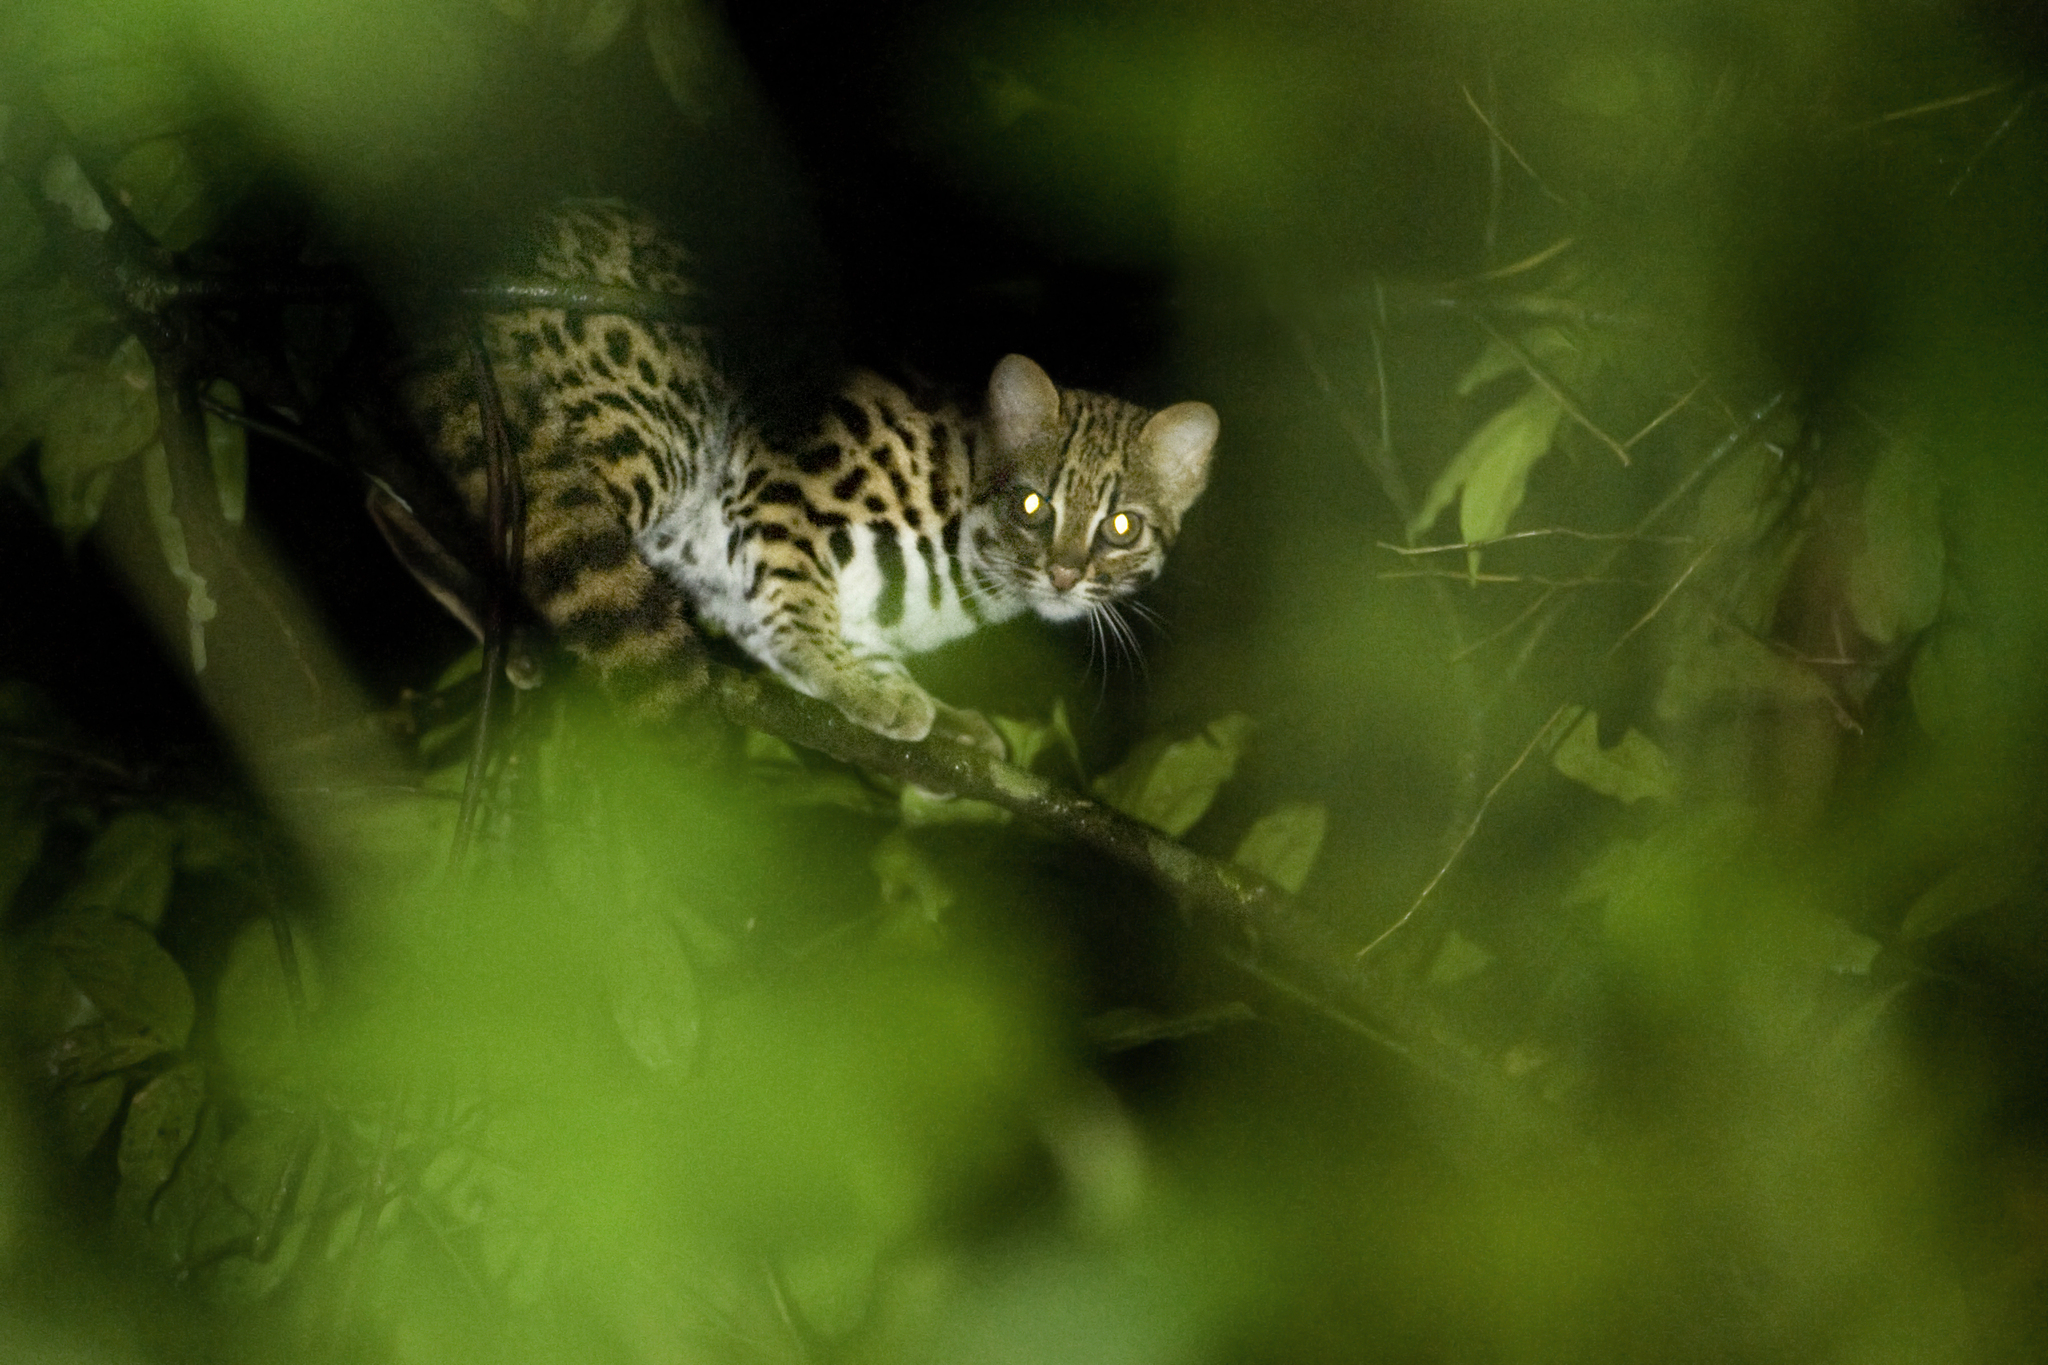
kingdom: Animalia
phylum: Chordata
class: Mammalia
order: Carnivora
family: Felidae
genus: Prionailurus
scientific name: Prionailurus bengalensis
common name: Leopard cat
